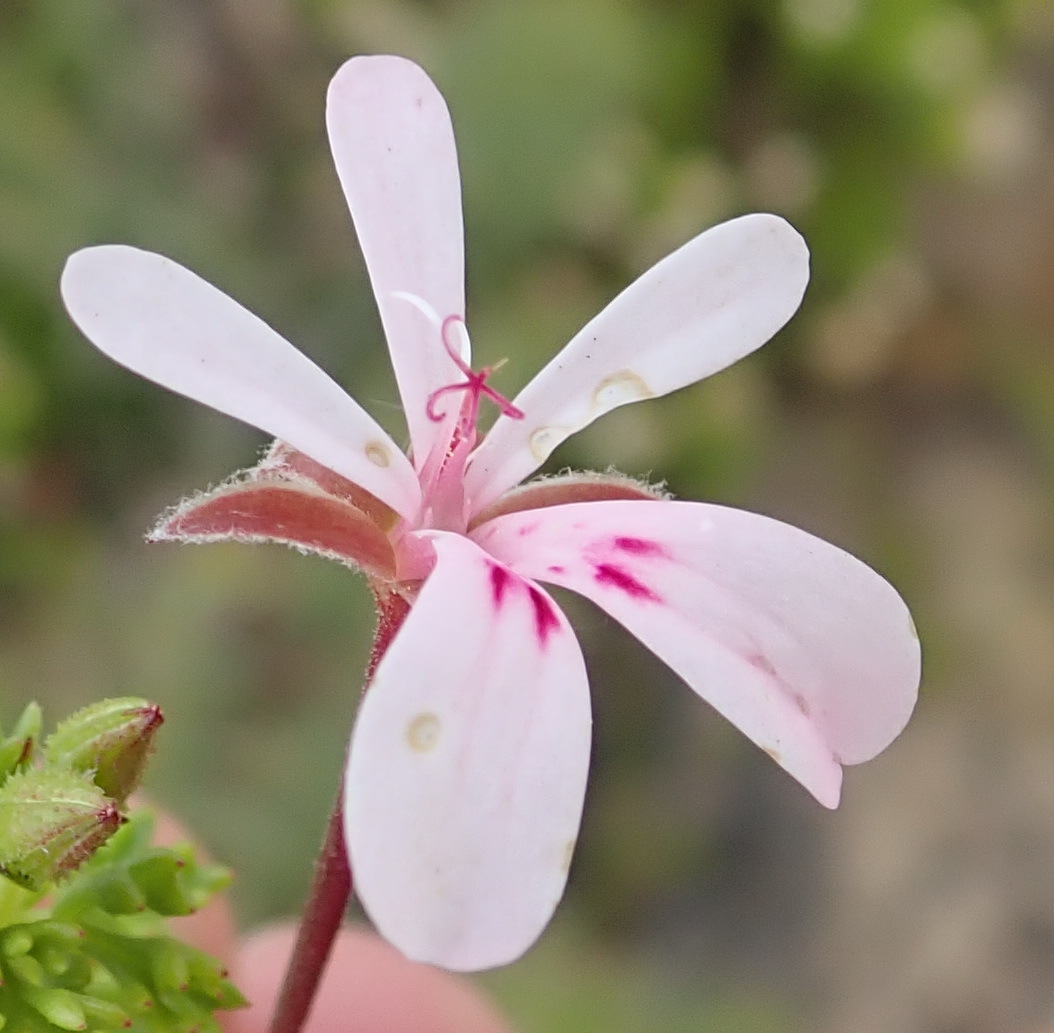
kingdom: Plantae
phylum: Tracheophyta
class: Magnoliopsida
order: Geraniales
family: Geraniaceae
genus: Pelargonium
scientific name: Pelargonium fruticosum
